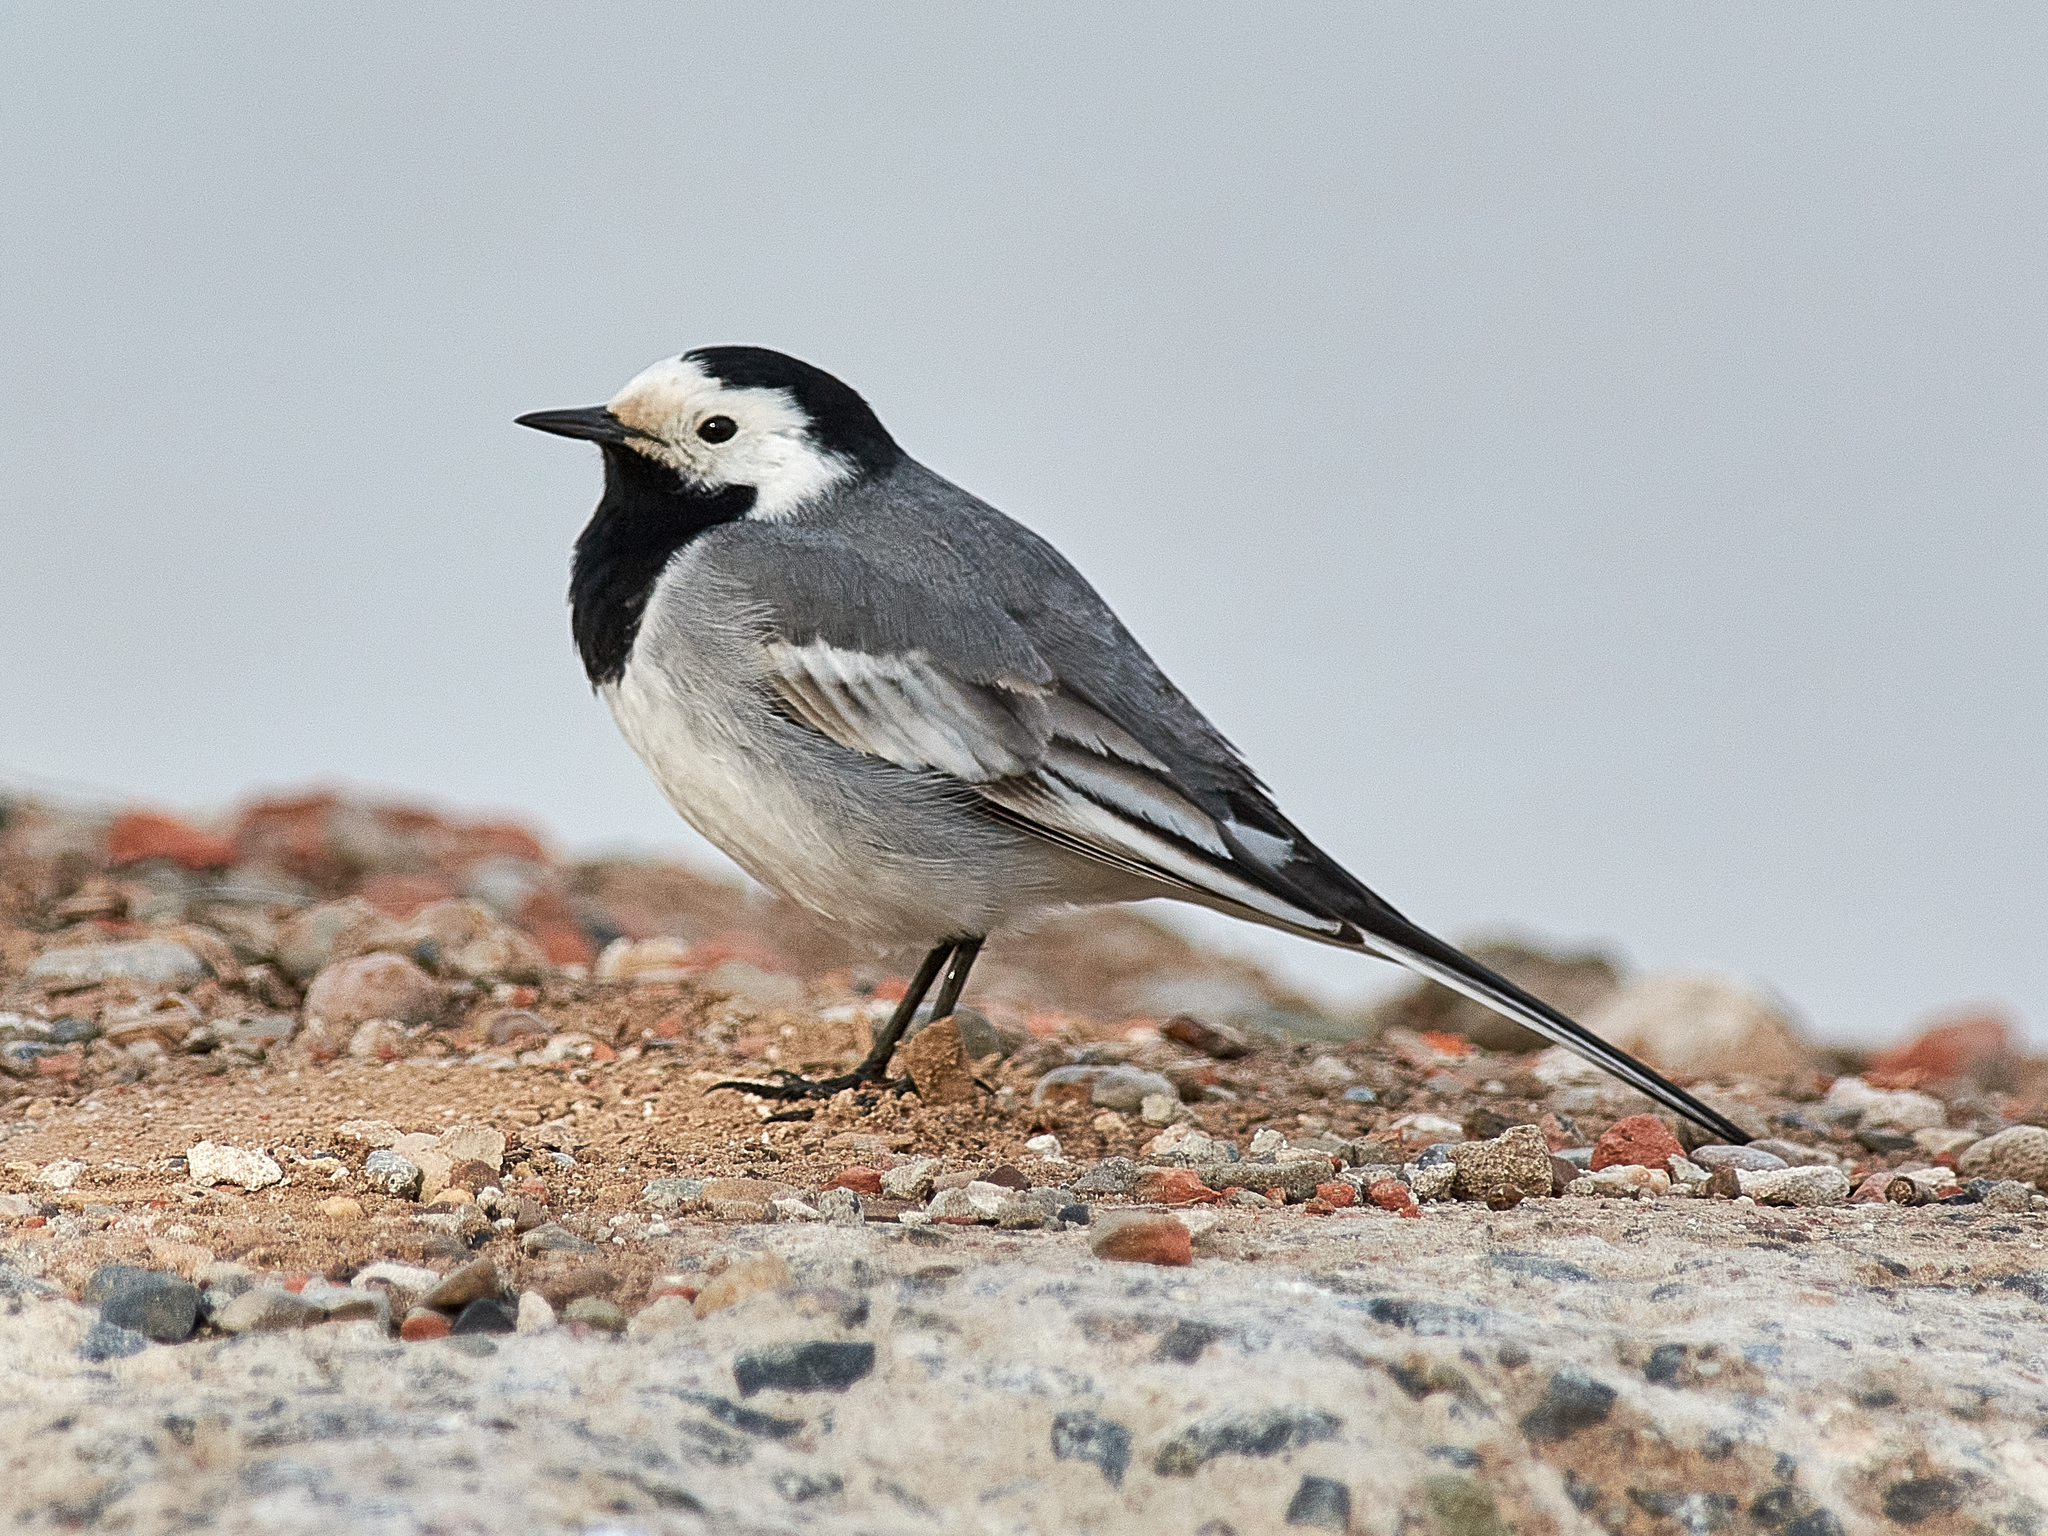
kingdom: Animalia
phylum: Chordata
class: Aves
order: Passeriformes
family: Motacillidae
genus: Motacilla
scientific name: Motacilla alba
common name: White wagtail
